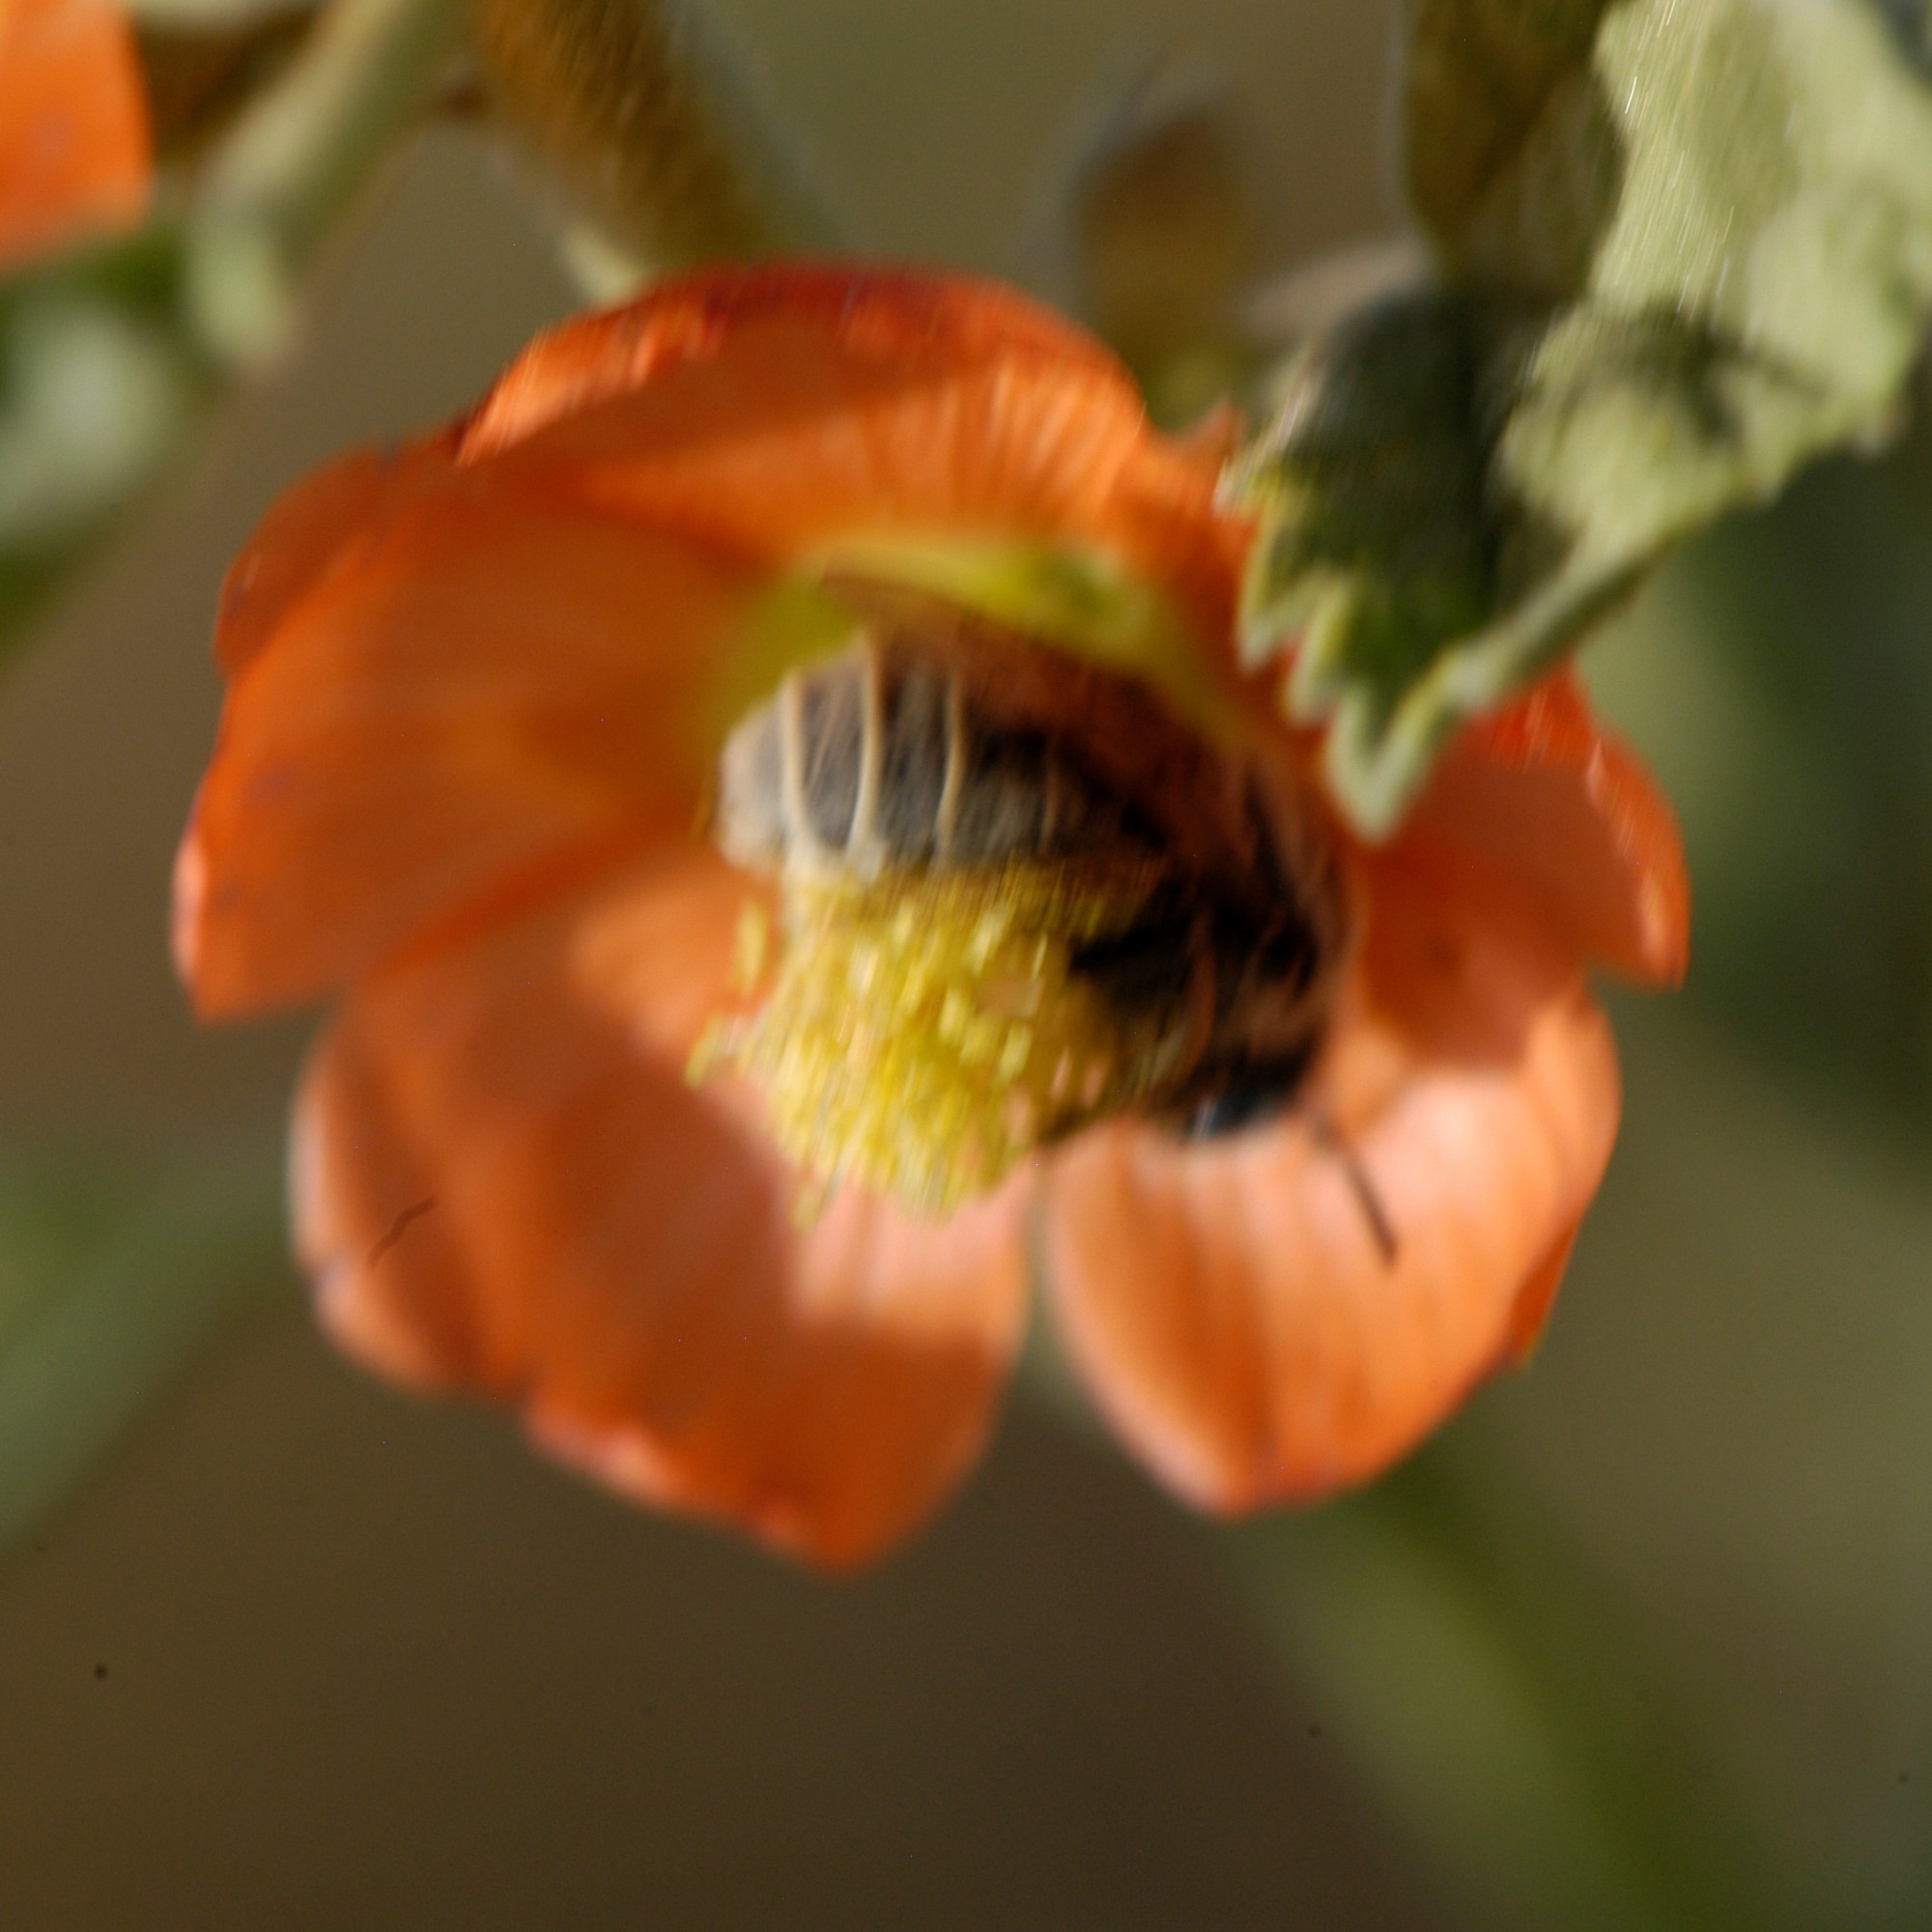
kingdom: Animalia
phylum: Arthropoda
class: Insecta
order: Hymenoptera
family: Apidae
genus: Diadasia
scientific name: Diadasia
